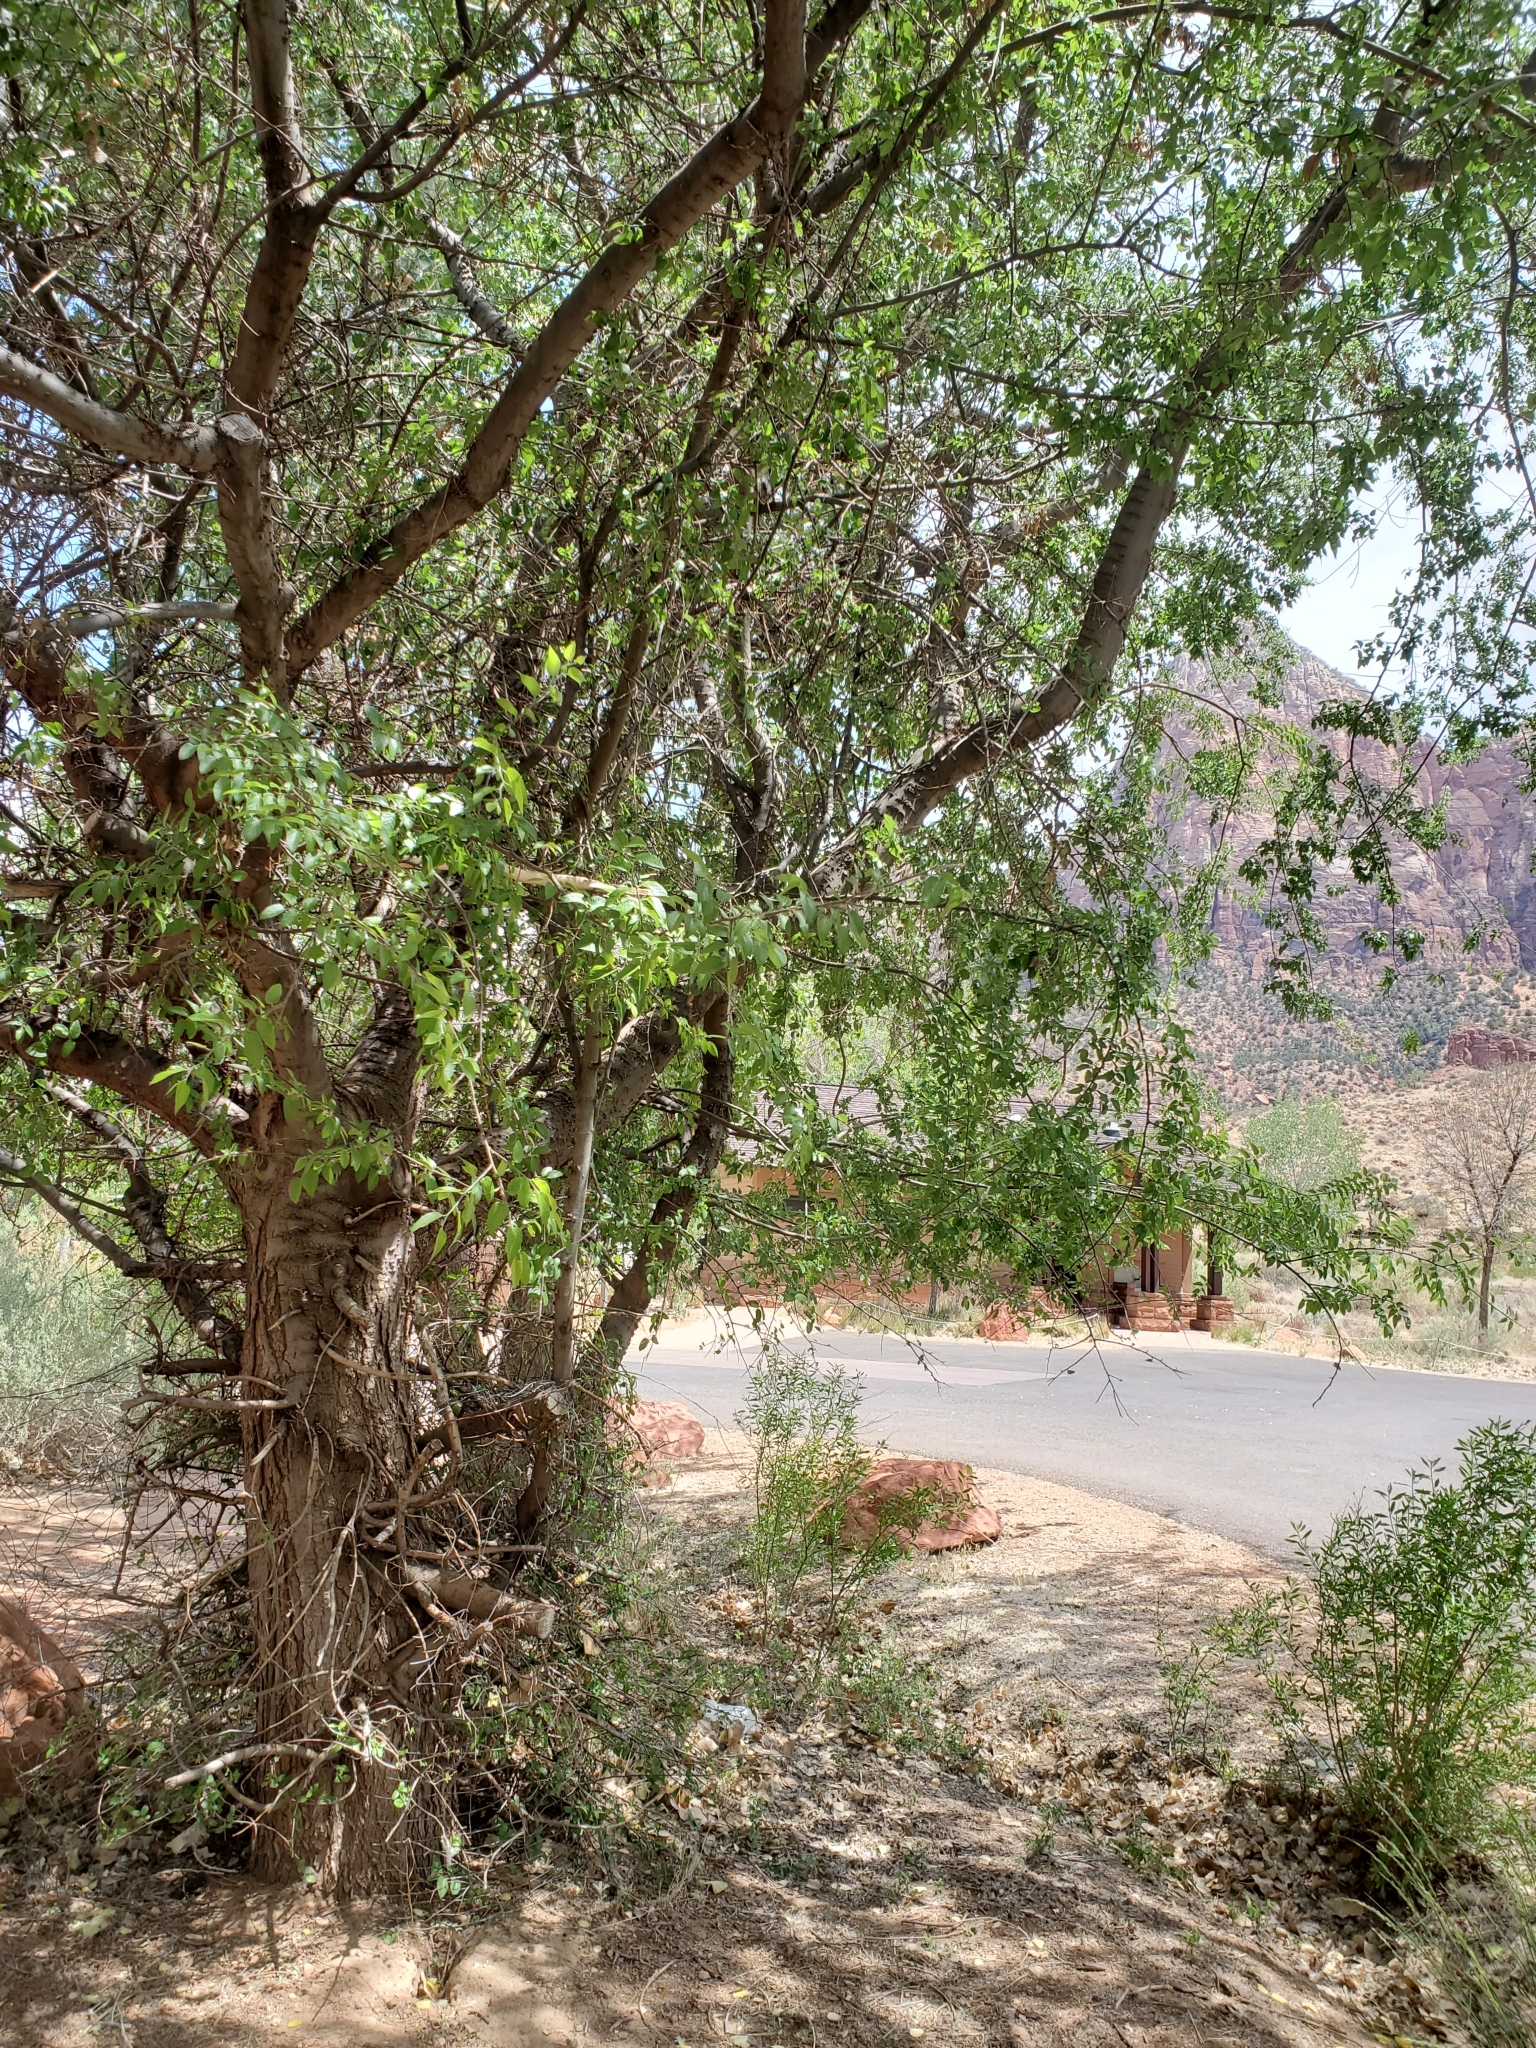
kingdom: Plantae
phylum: Tracheophyta
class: Magnoliopsida
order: Rosales
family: Cannabaceae
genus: Celtis
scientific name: Celtis reticulata
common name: Netleaf hackberry
